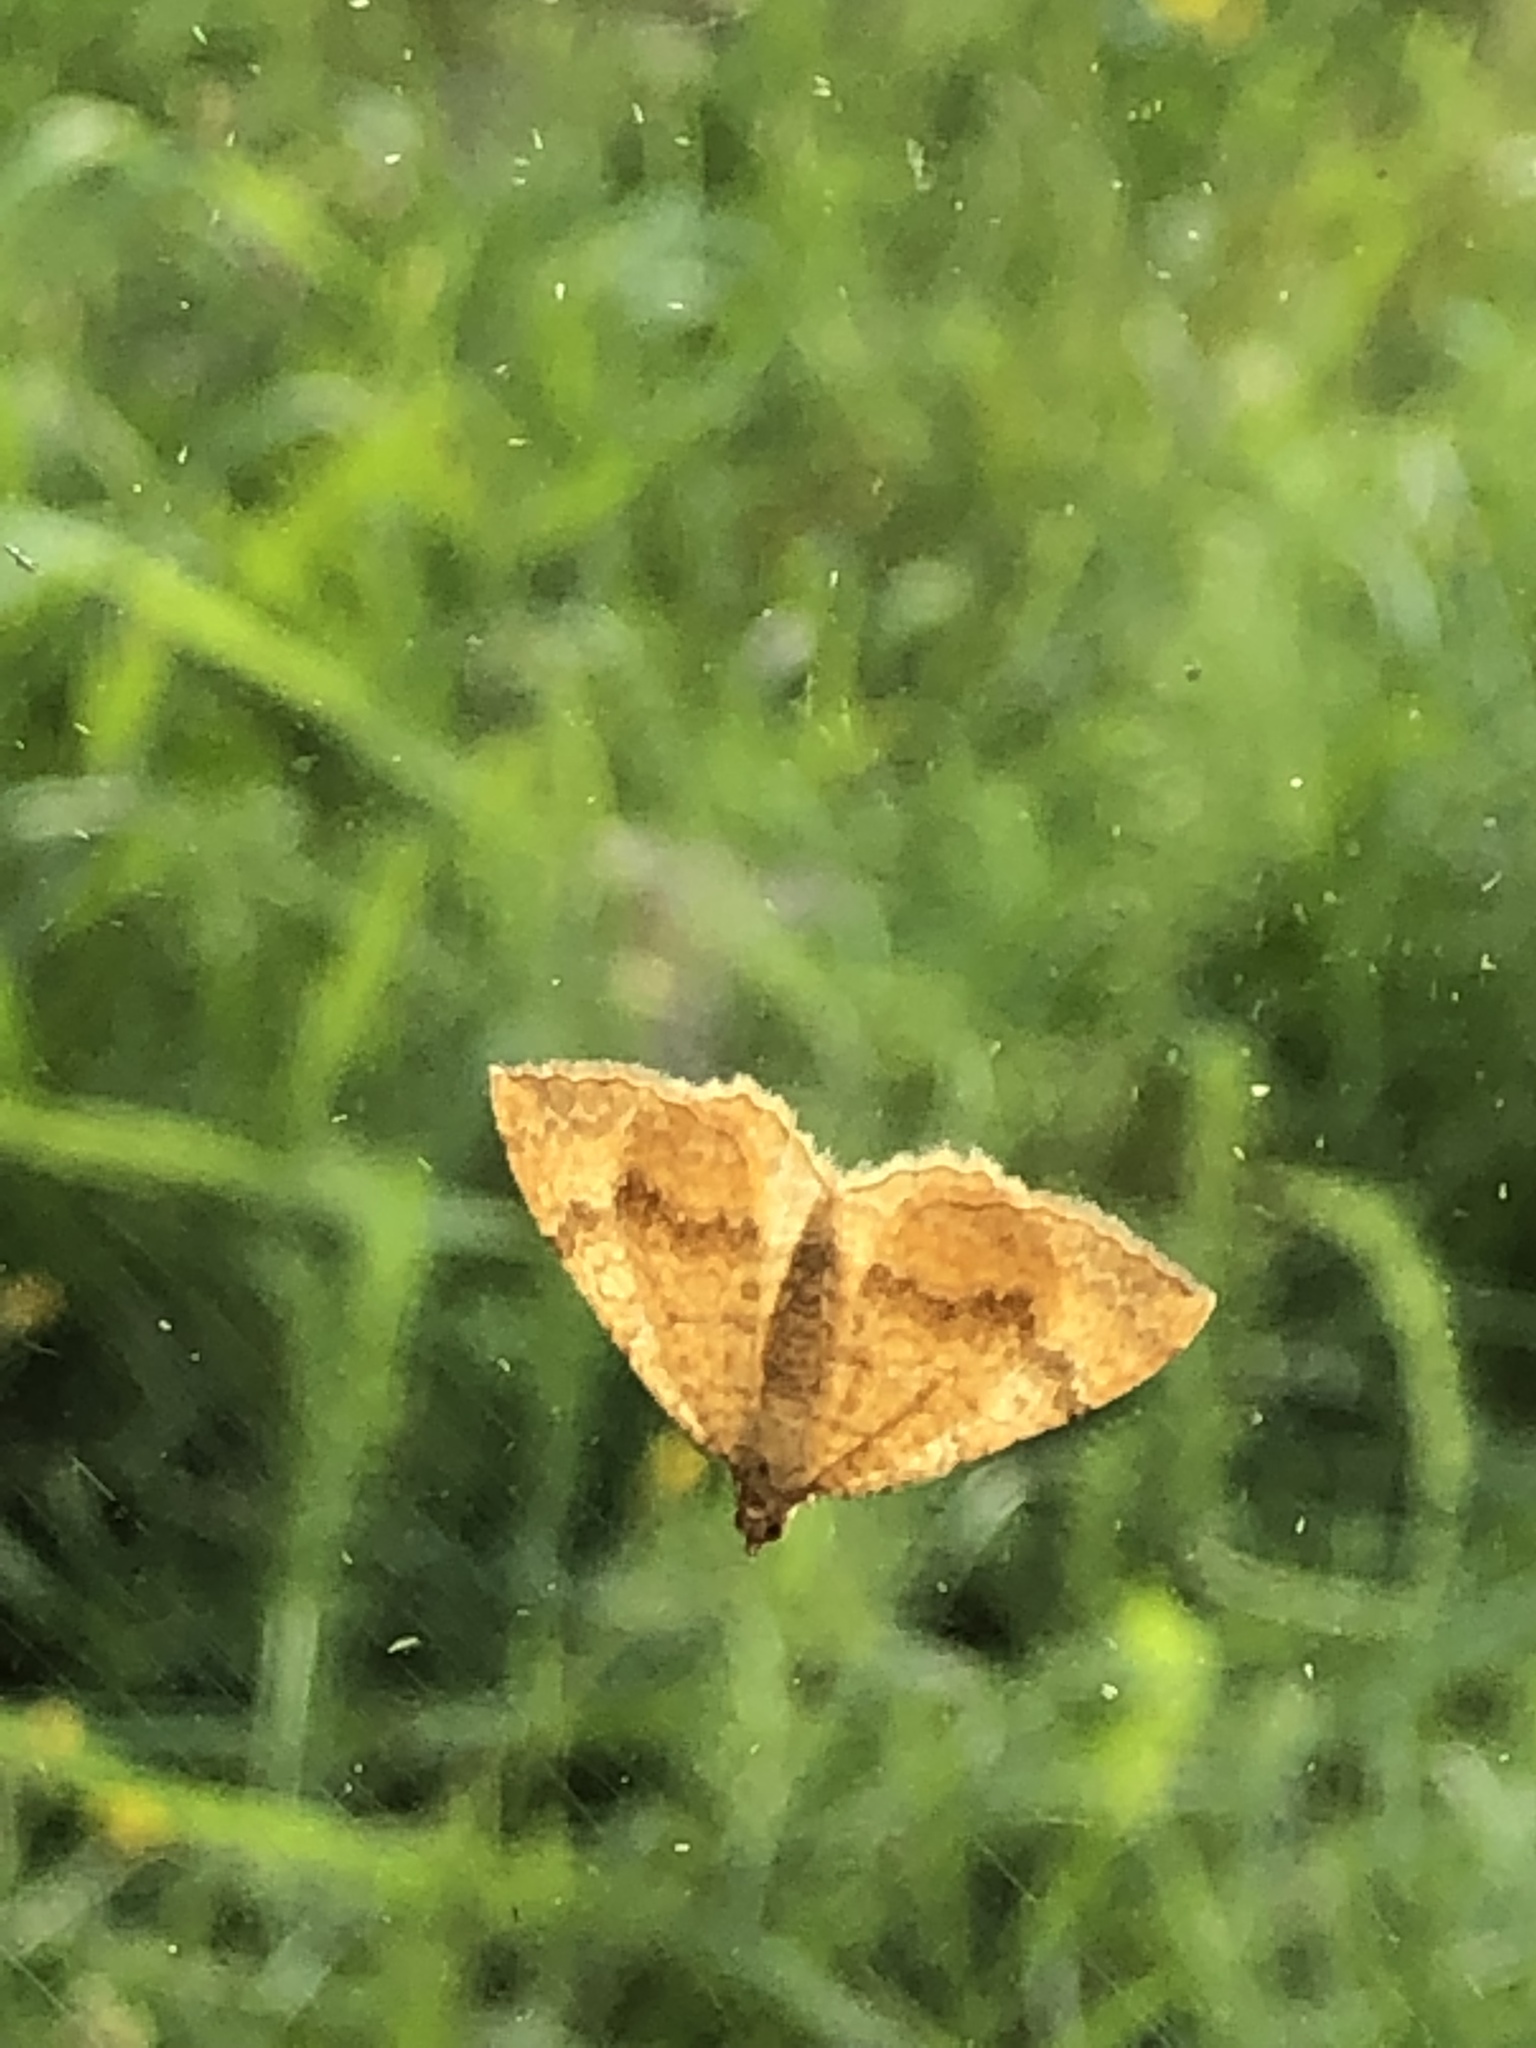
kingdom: Animalia
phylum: Arthropoda
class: Insecta
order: Lepidoptera
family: Geometridae
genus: Camptogramma
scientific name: Camptogramma bilineata
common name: Yellow shell
